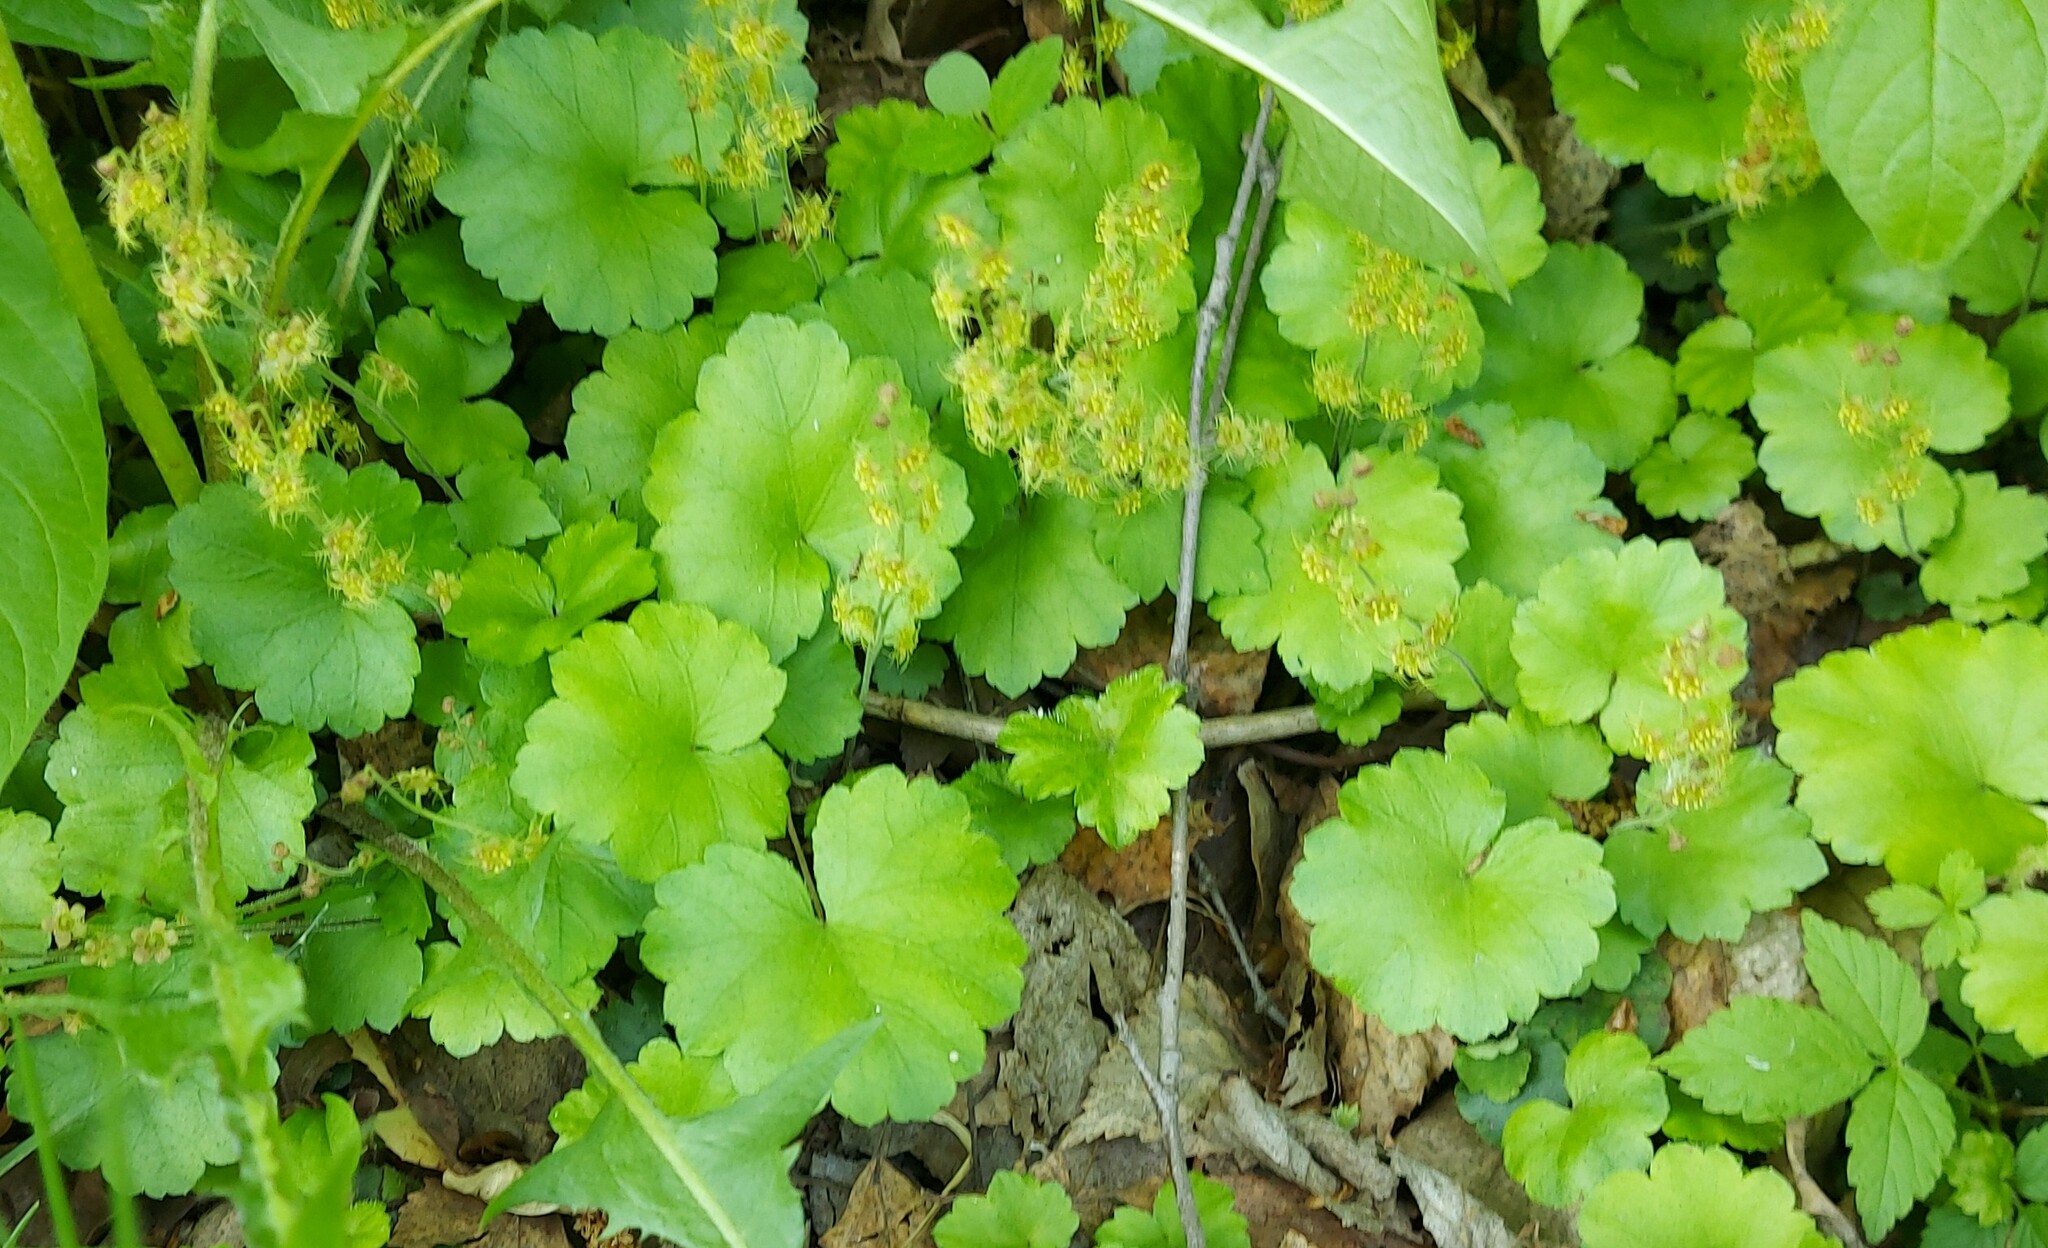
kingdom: Plantae
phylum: Tracheophyta
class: Magnoliopsida
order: Saxifragales
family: Saxifragaceae
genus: Mitella
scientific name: Mitella nuda
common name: Bare-stemmed bishop's-cap
